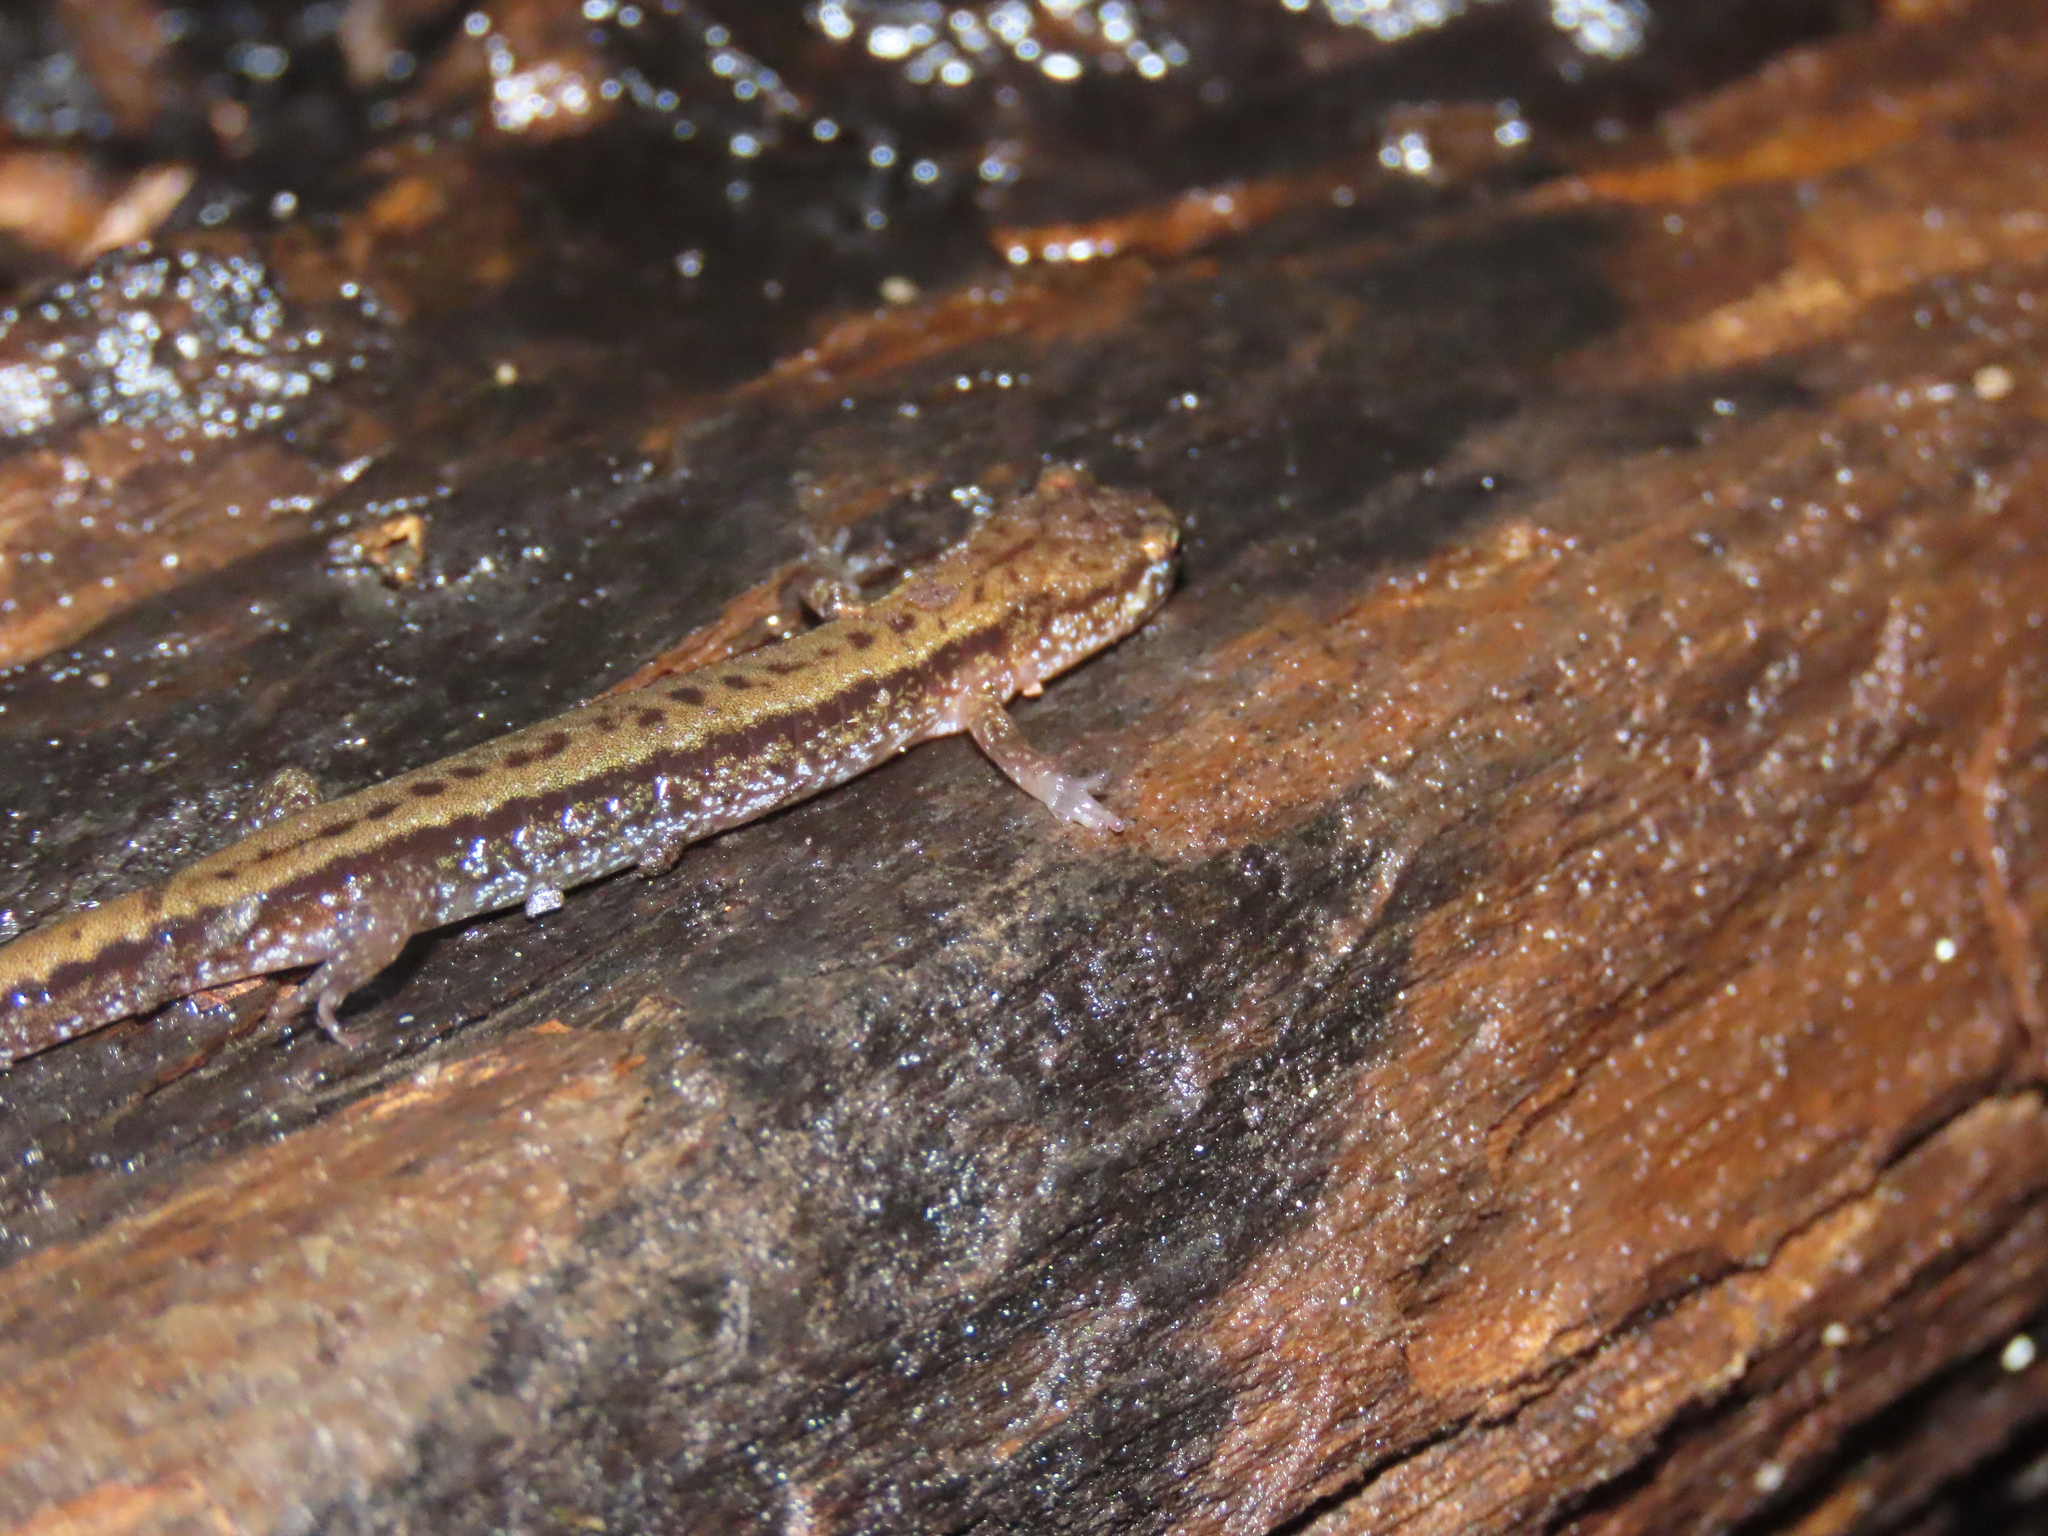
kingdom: Animalia
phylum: Chordata
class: Amphibia
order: Caudata
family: Plethodontidae
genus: Desmognathus
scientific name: Desmognathus ochrophaeus
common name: Allegheny mountain dusky salamander
